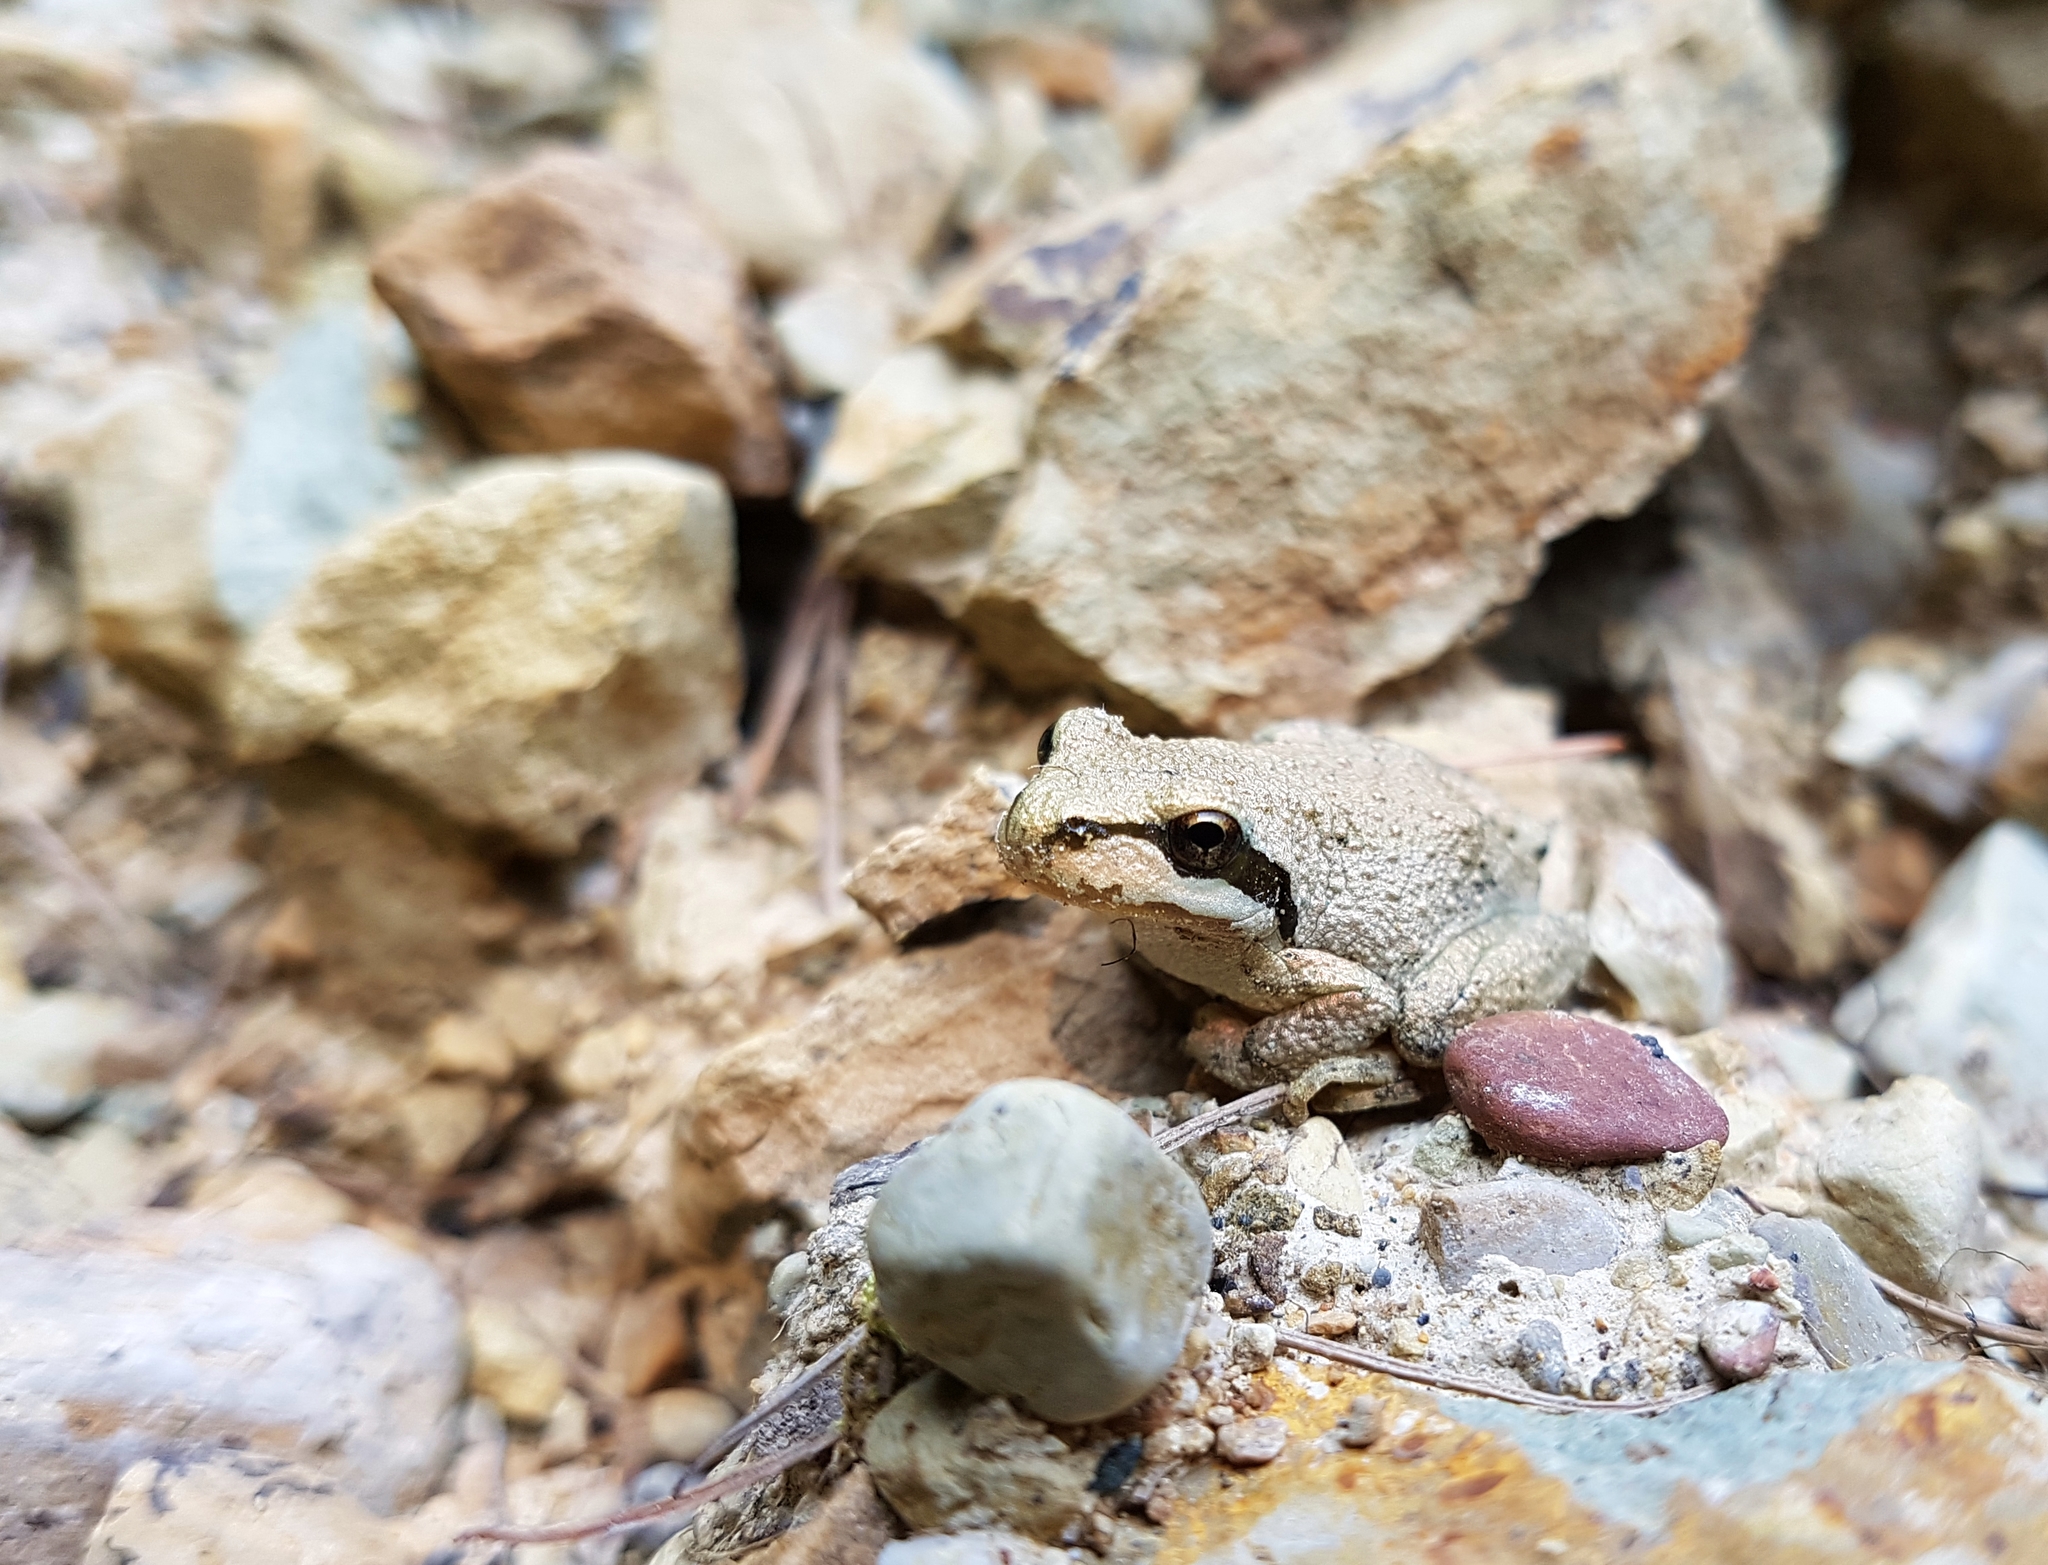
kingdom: Animalia
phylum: Chordata
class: Amphibia
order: Anura
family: Hylidae
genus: Pseudacris
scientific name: Pseudacris regilla
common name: Pacific chorus frog
